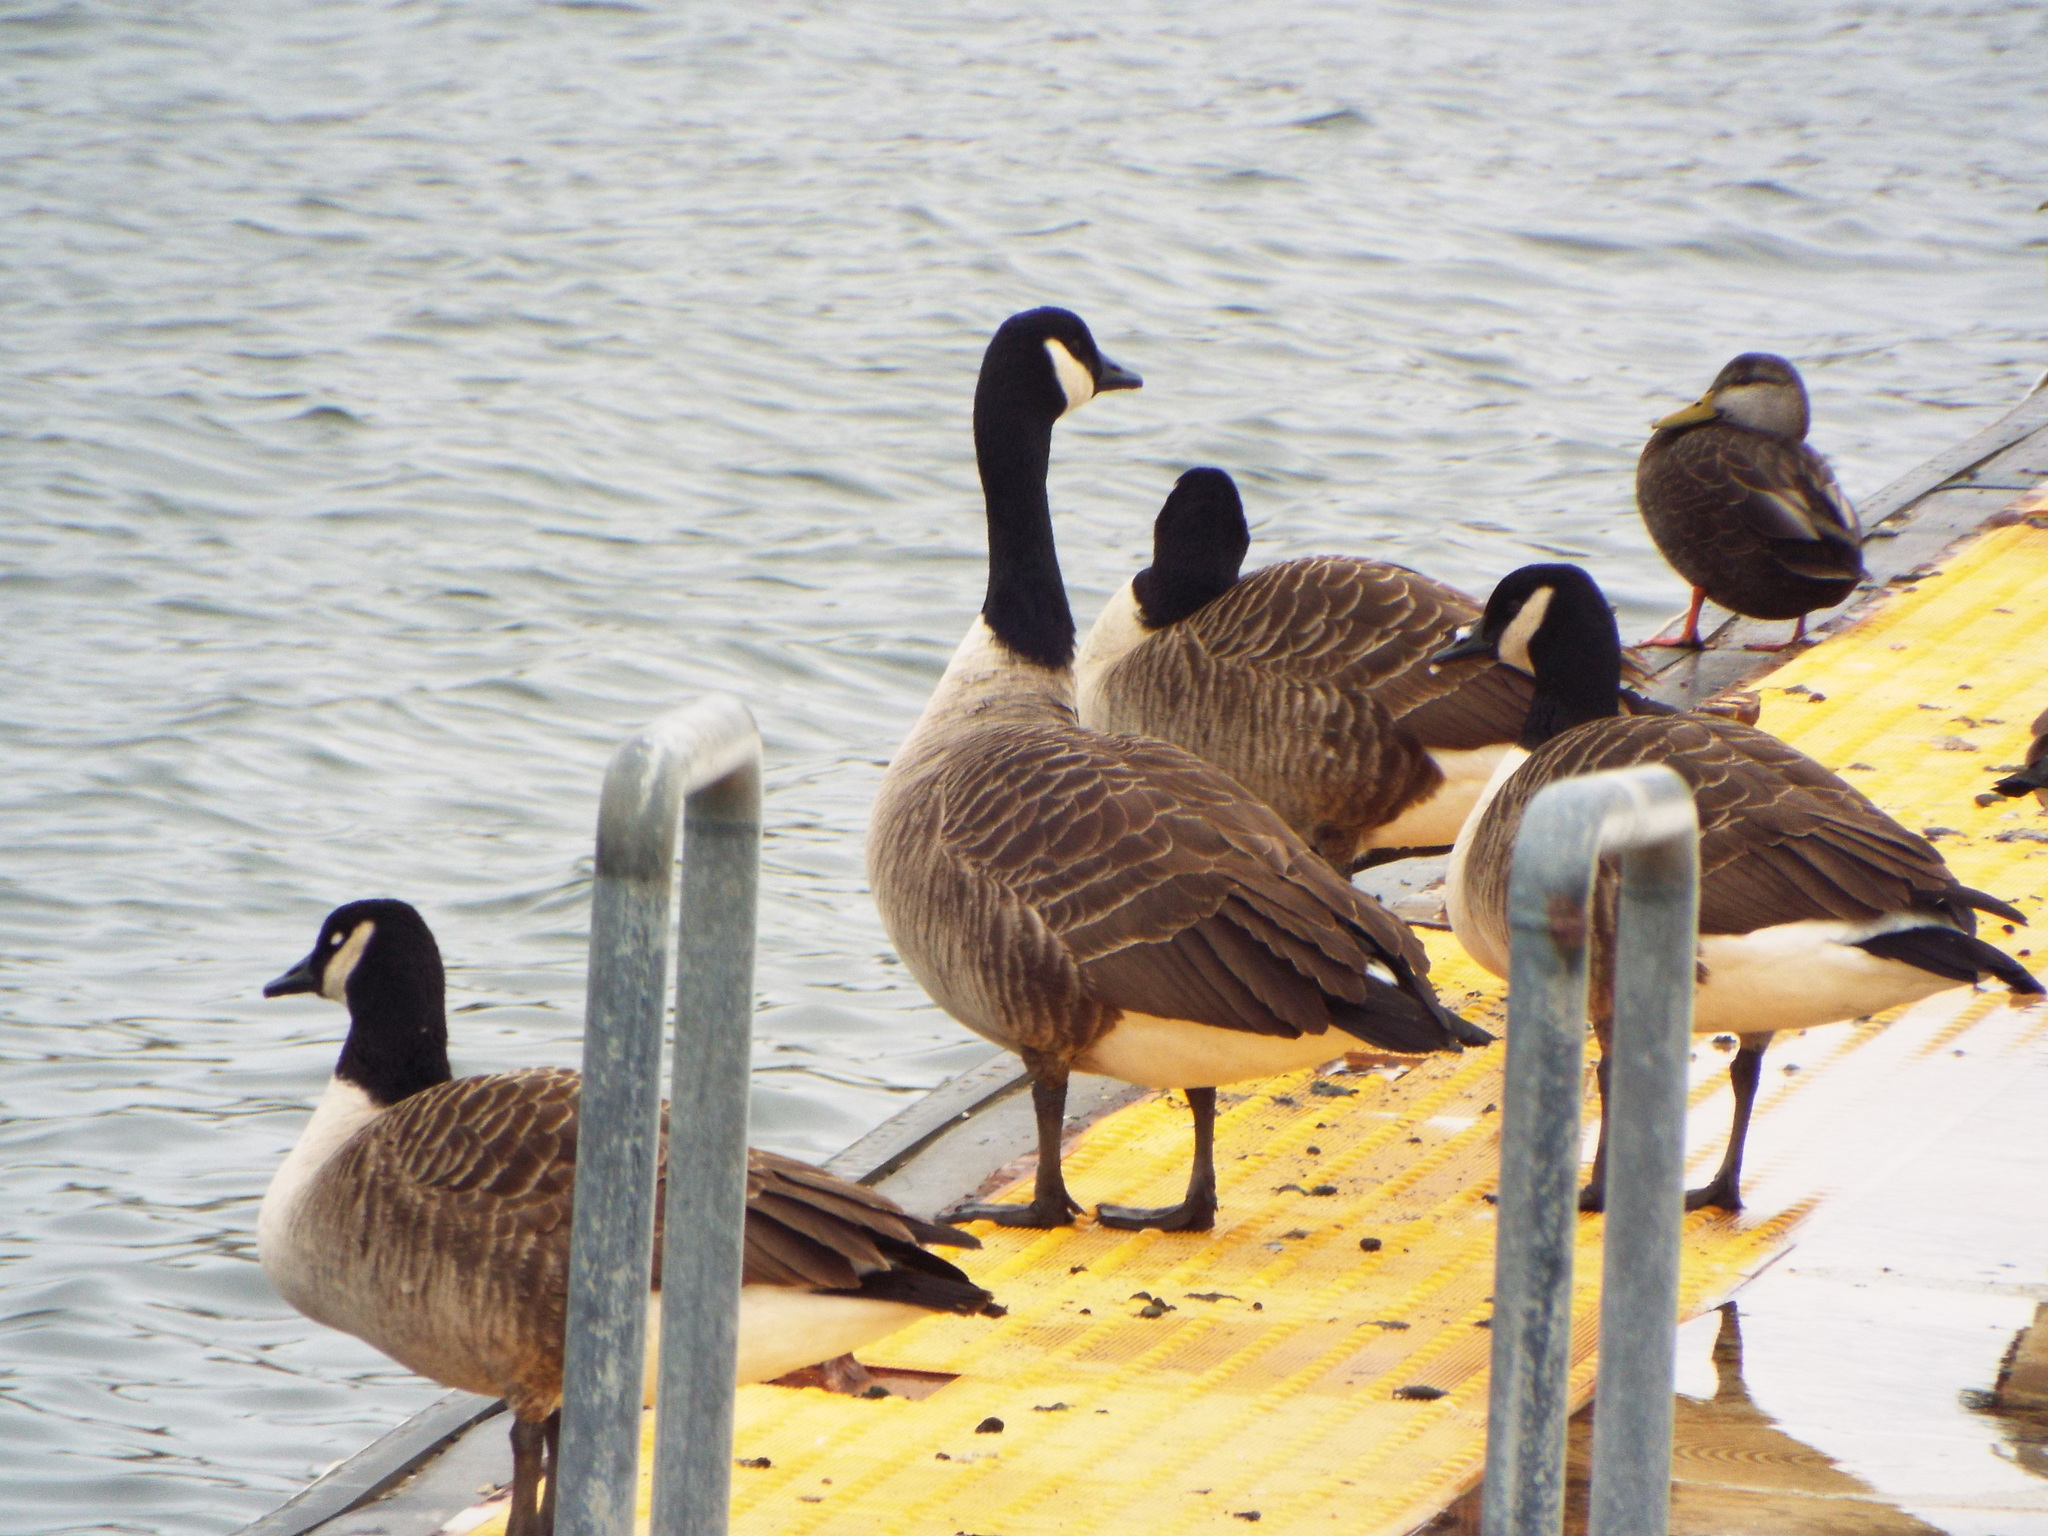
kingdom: Animalia
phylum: Chordata
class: Aves
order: Anseriformes
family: Anatidae
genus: Branta
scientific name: Branta canadensis
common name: Canada goose
